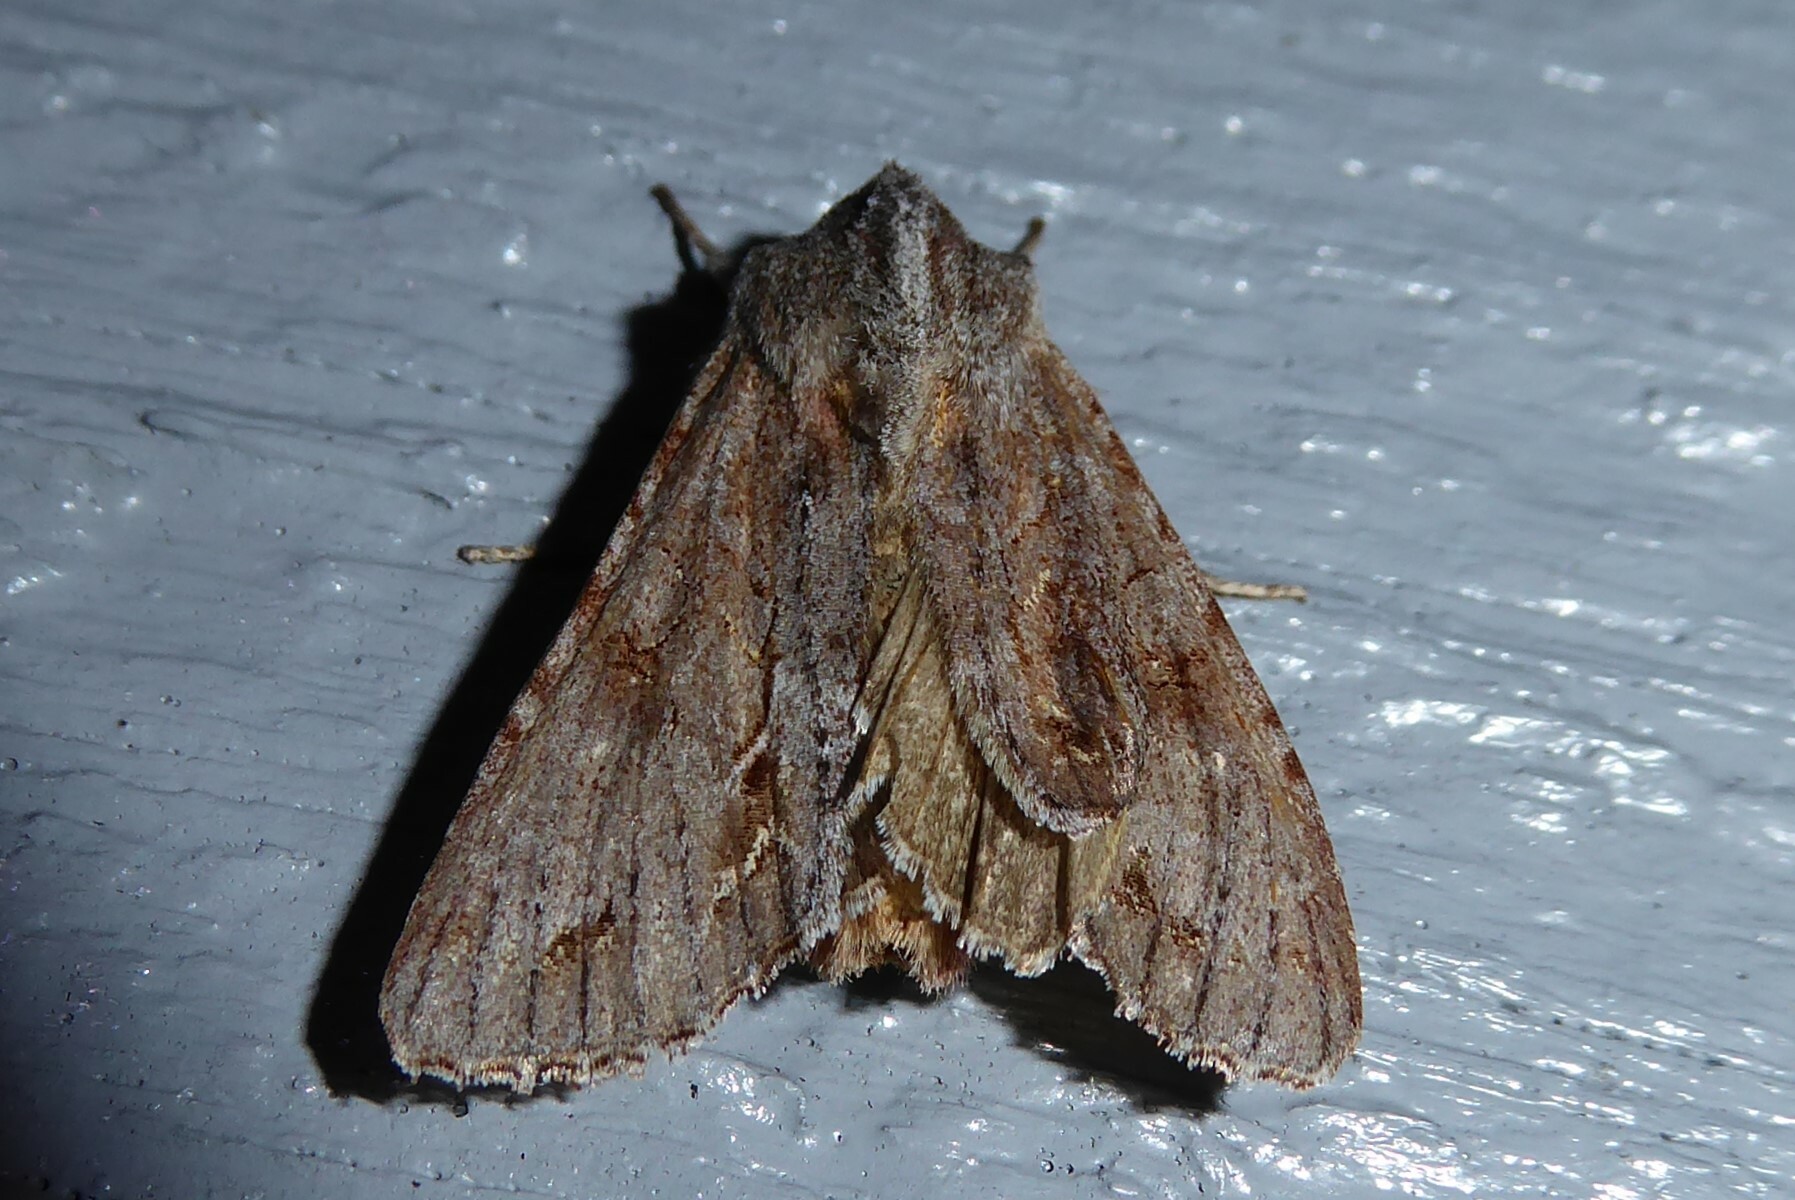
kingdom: Animalia
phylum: Arthropoda
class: Insecta
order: Lepidoptera
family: Noctuidae
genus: Ichneutica
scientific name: Ichneutica
